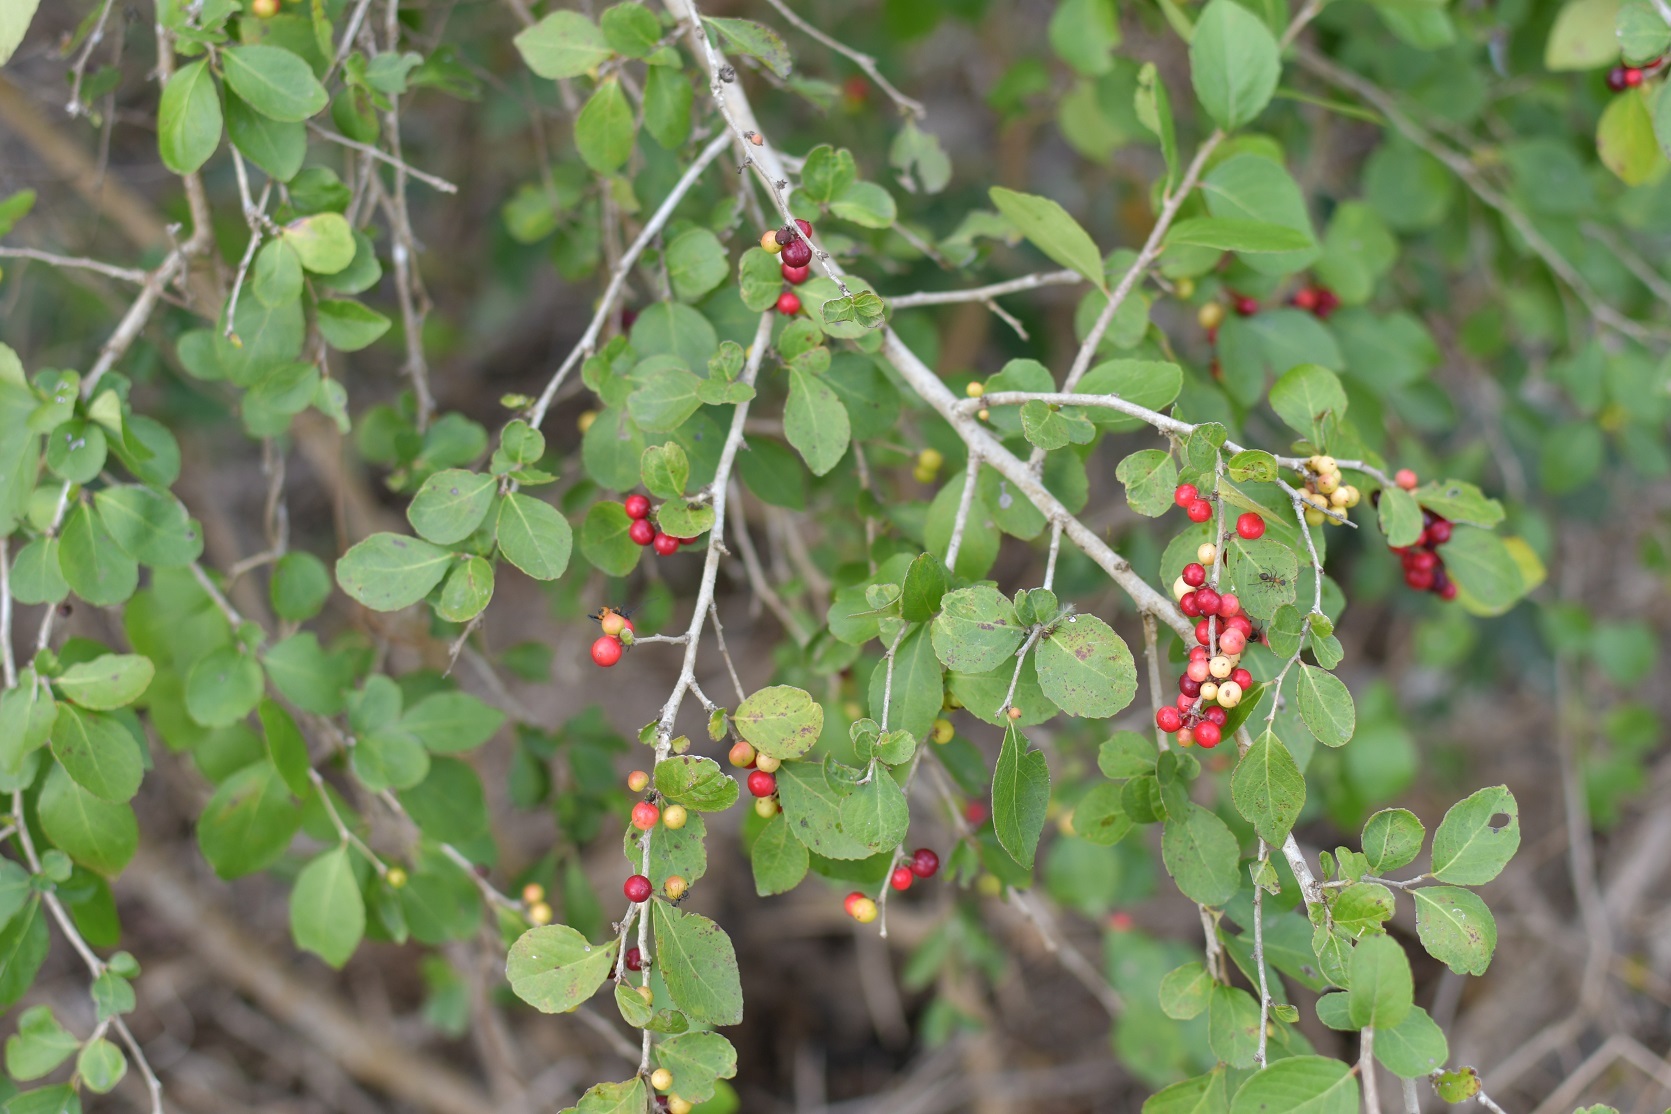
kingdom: Plantae
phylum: Tracheophyta
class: Magnoliopsida
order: Malpighiales
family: Salicaceae
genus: Xylosma
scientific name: Xylosma flexuosa
